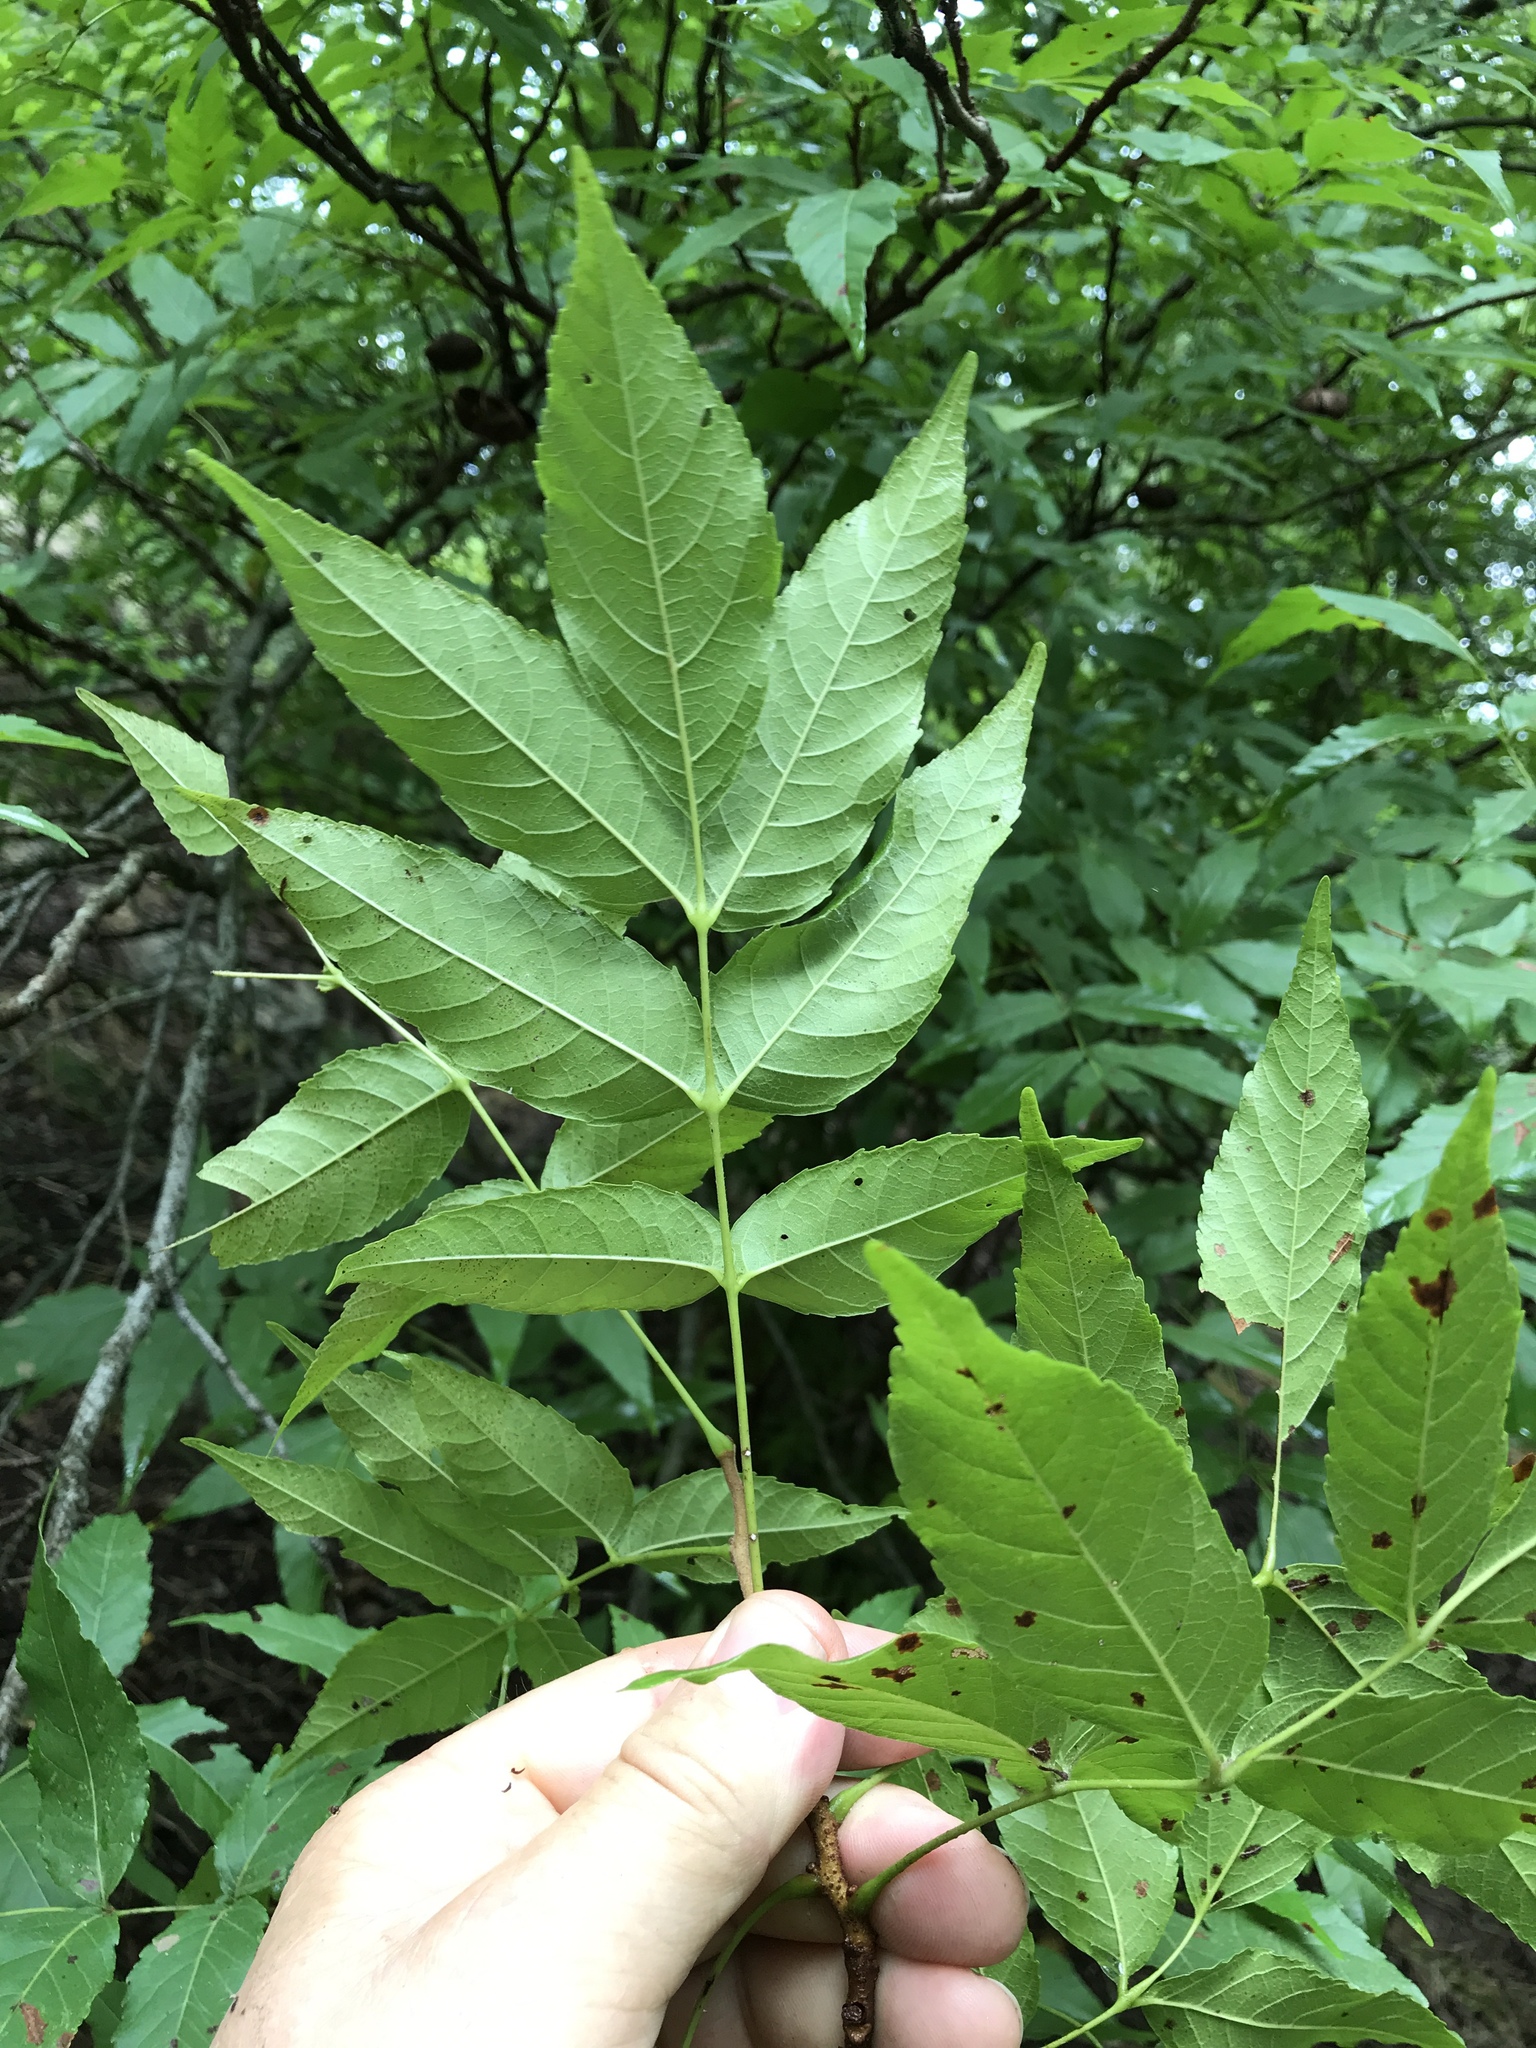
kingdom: Plantae
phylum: Tracheophyta
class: Magnoliopsida
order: Sapindales
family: Sapindaceae
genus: Ungnadia
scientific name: Ungnadia speciosa
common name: Texas-buckeye
